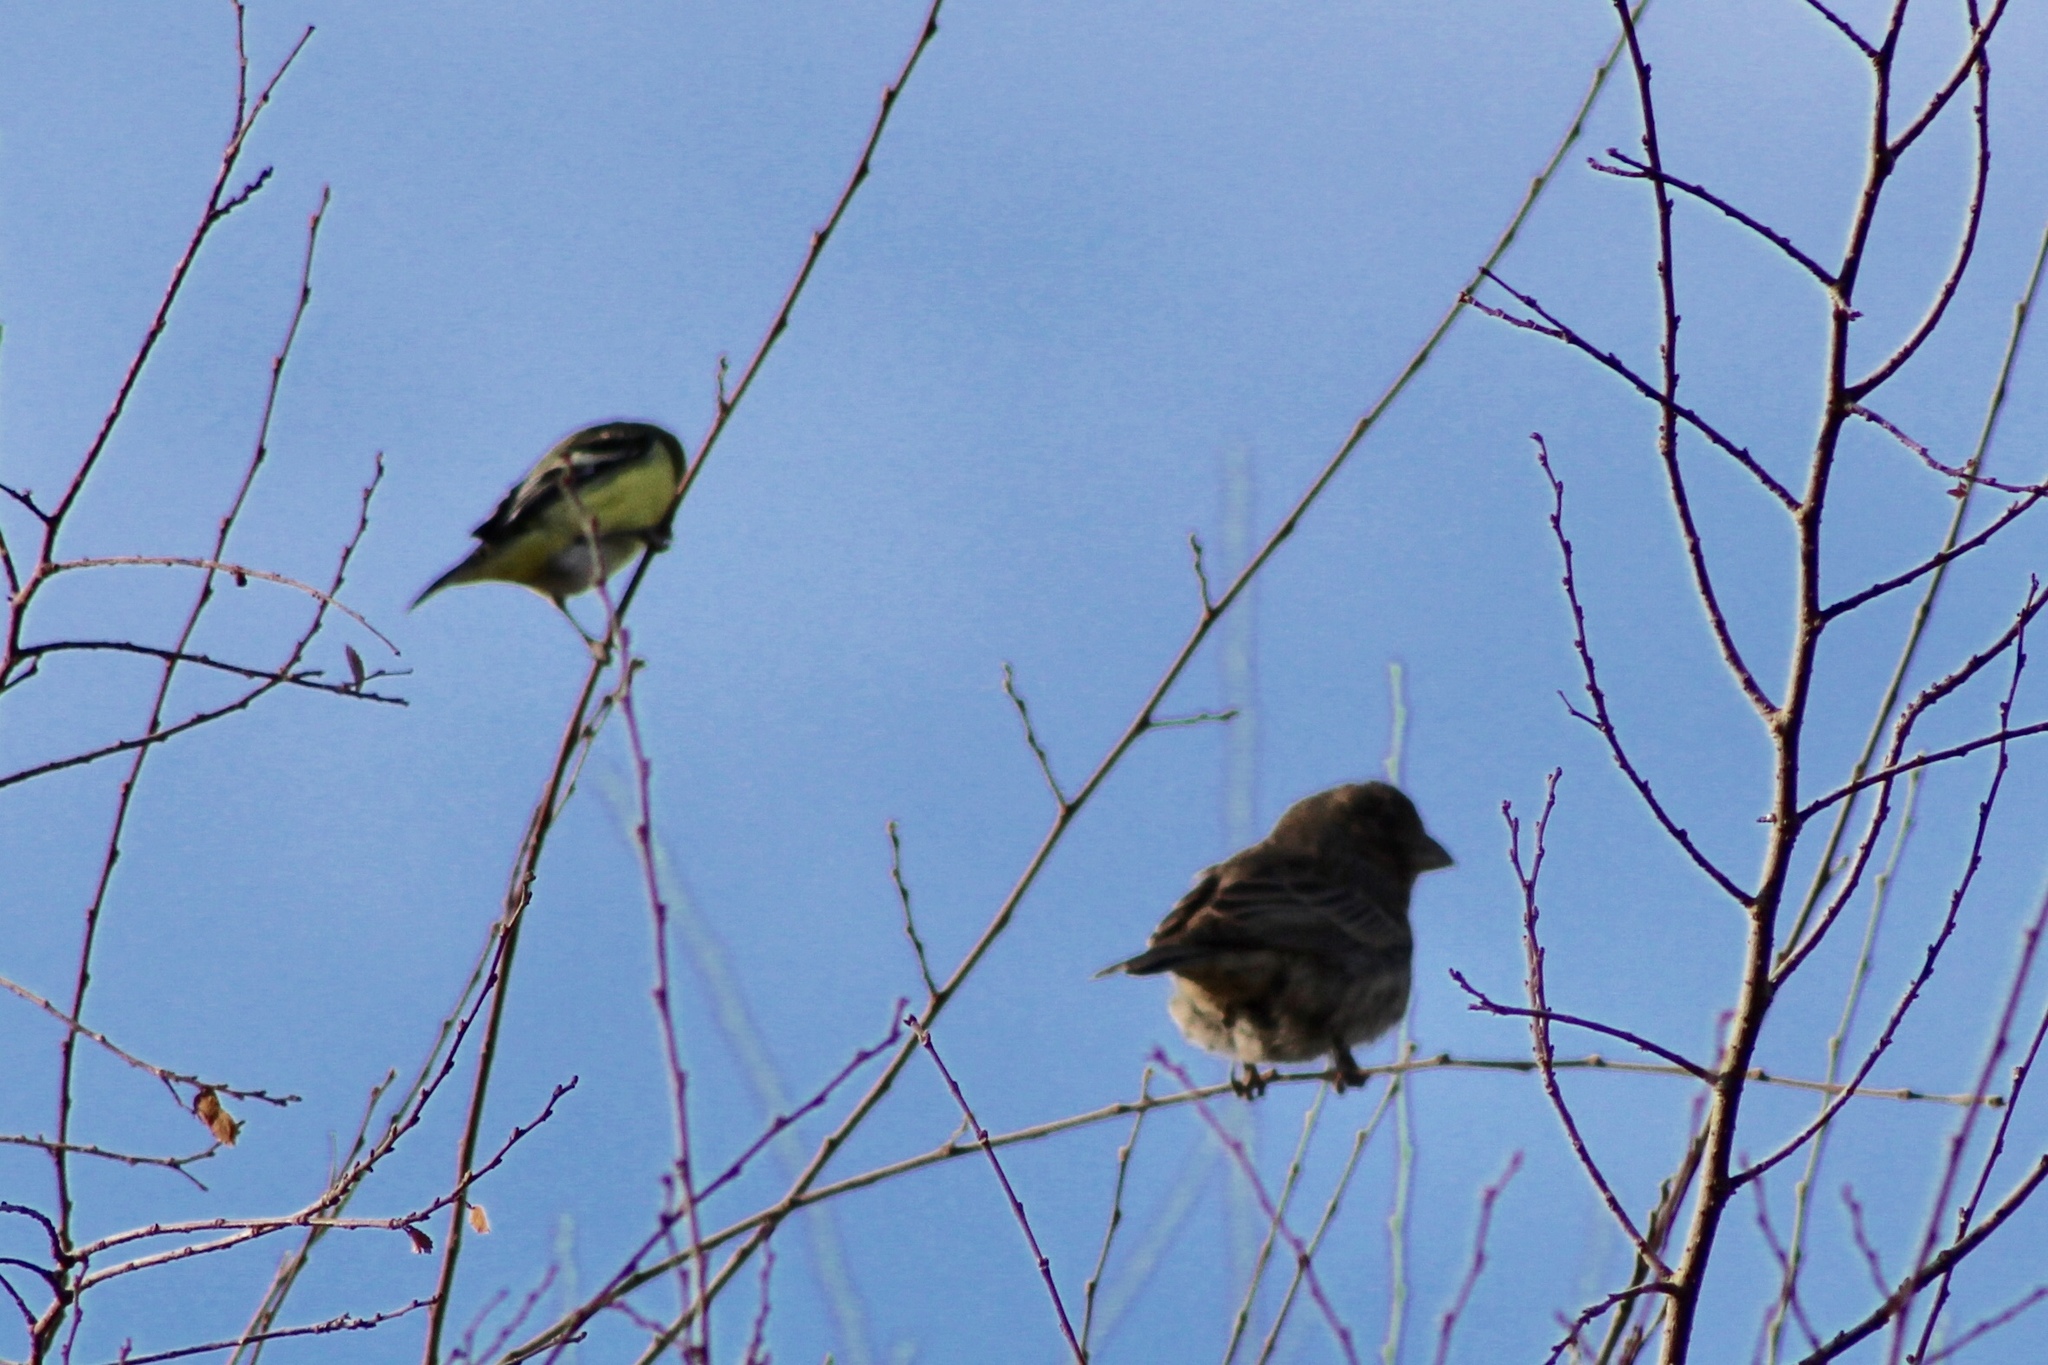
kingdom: Animalia
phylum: Chordata
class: Aves
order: Passeriformes
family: Fringillidae
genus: Haemorhous
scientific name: Haemorhous mexicanus
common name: House finch
